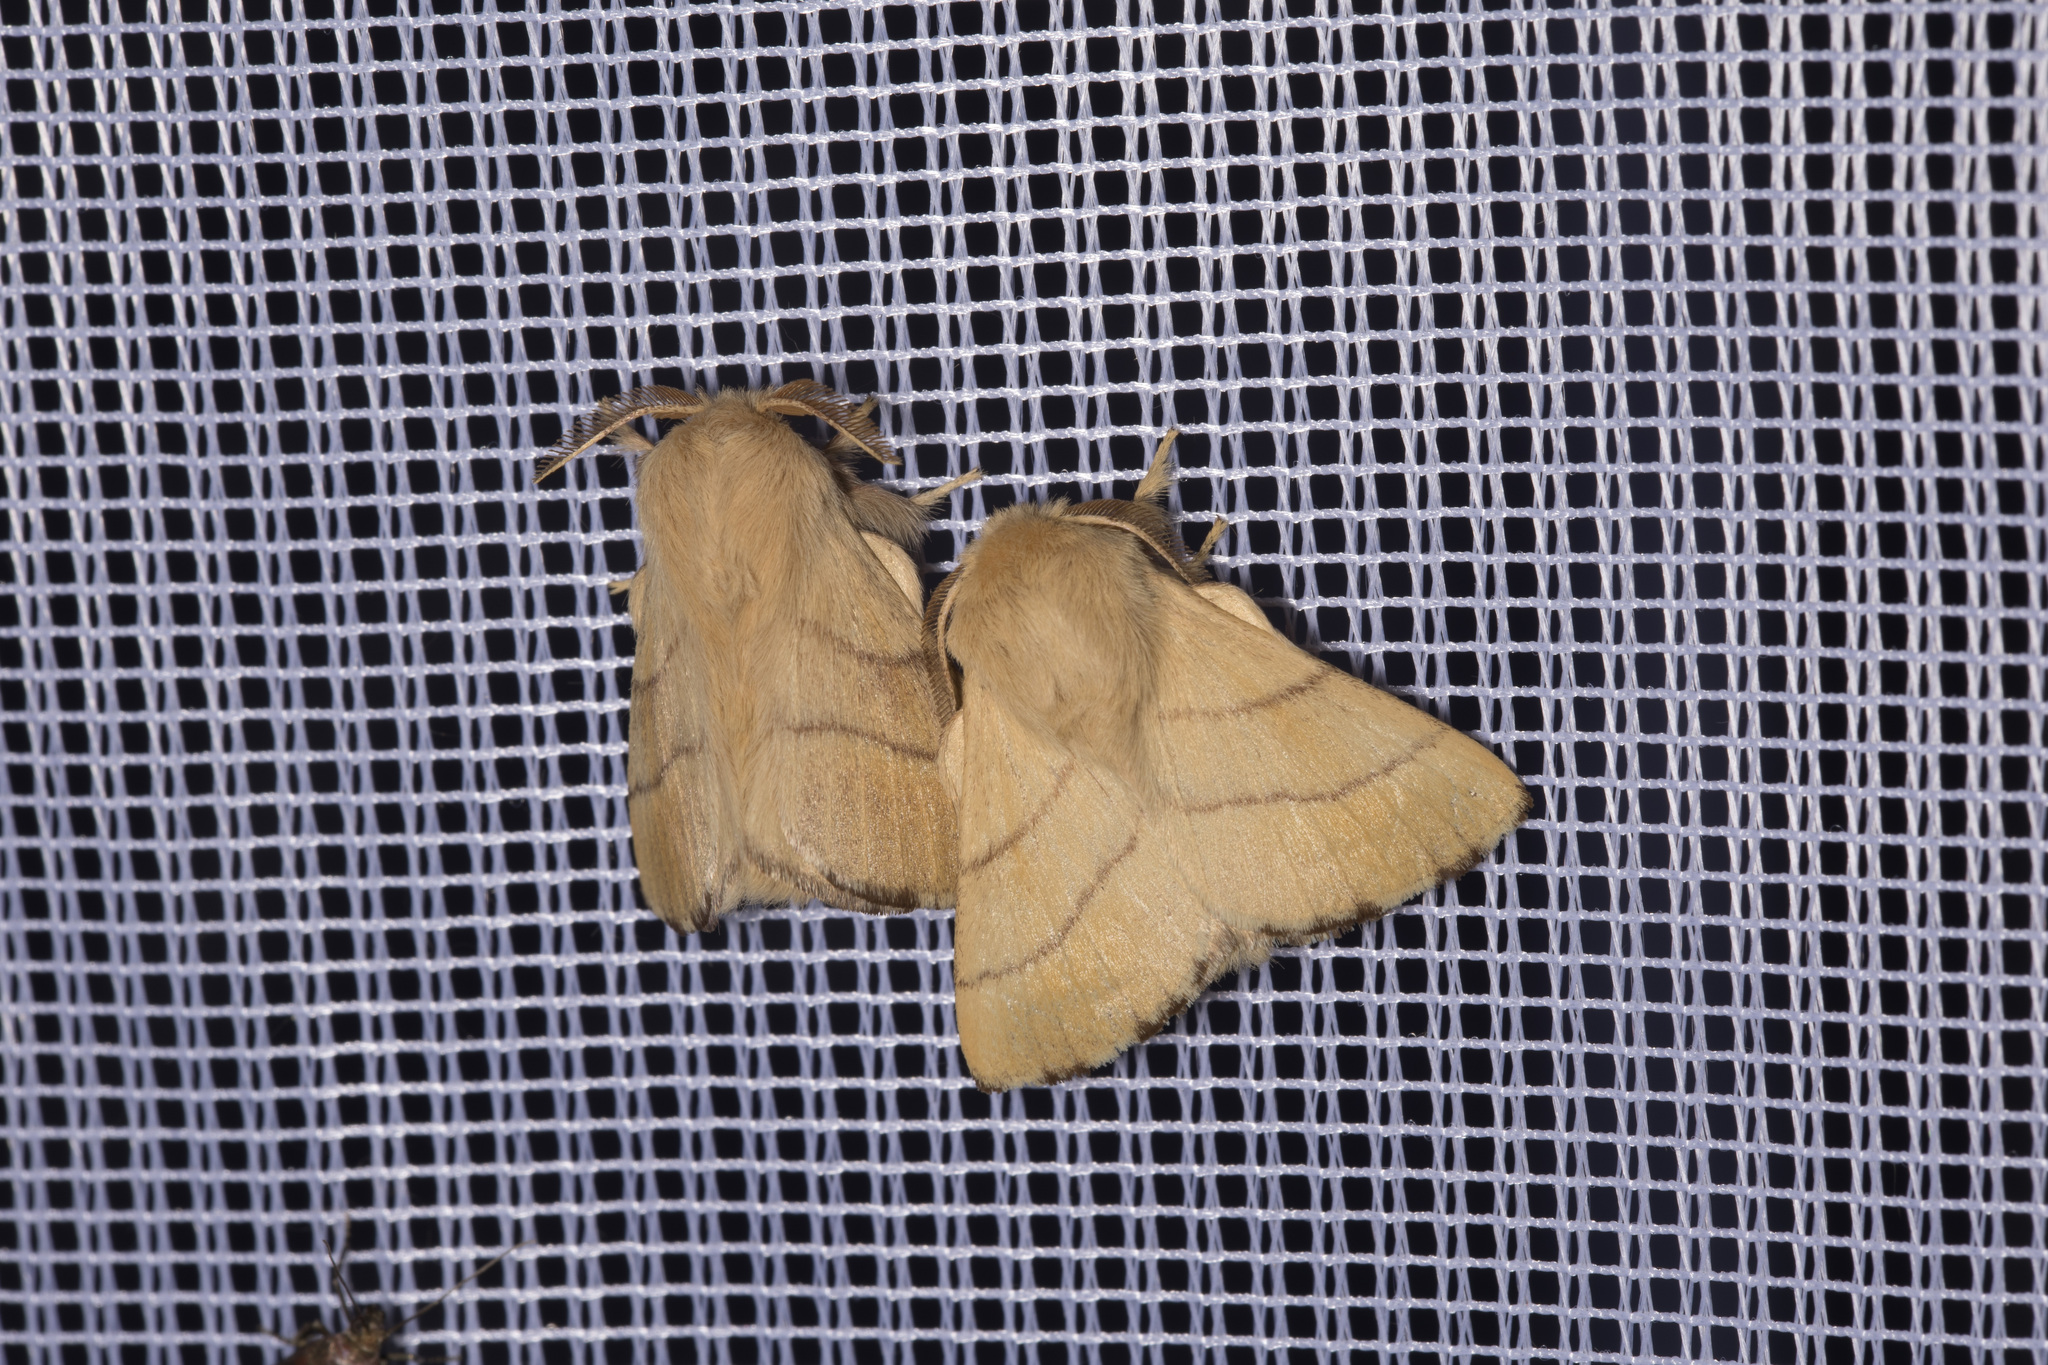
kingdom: Animalia
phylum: Arthropoda
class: Insecta
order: Lepidoptera
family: Lasiocampidae
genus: Malacosoma
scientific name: Malacosoma neustria
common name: The lackey
